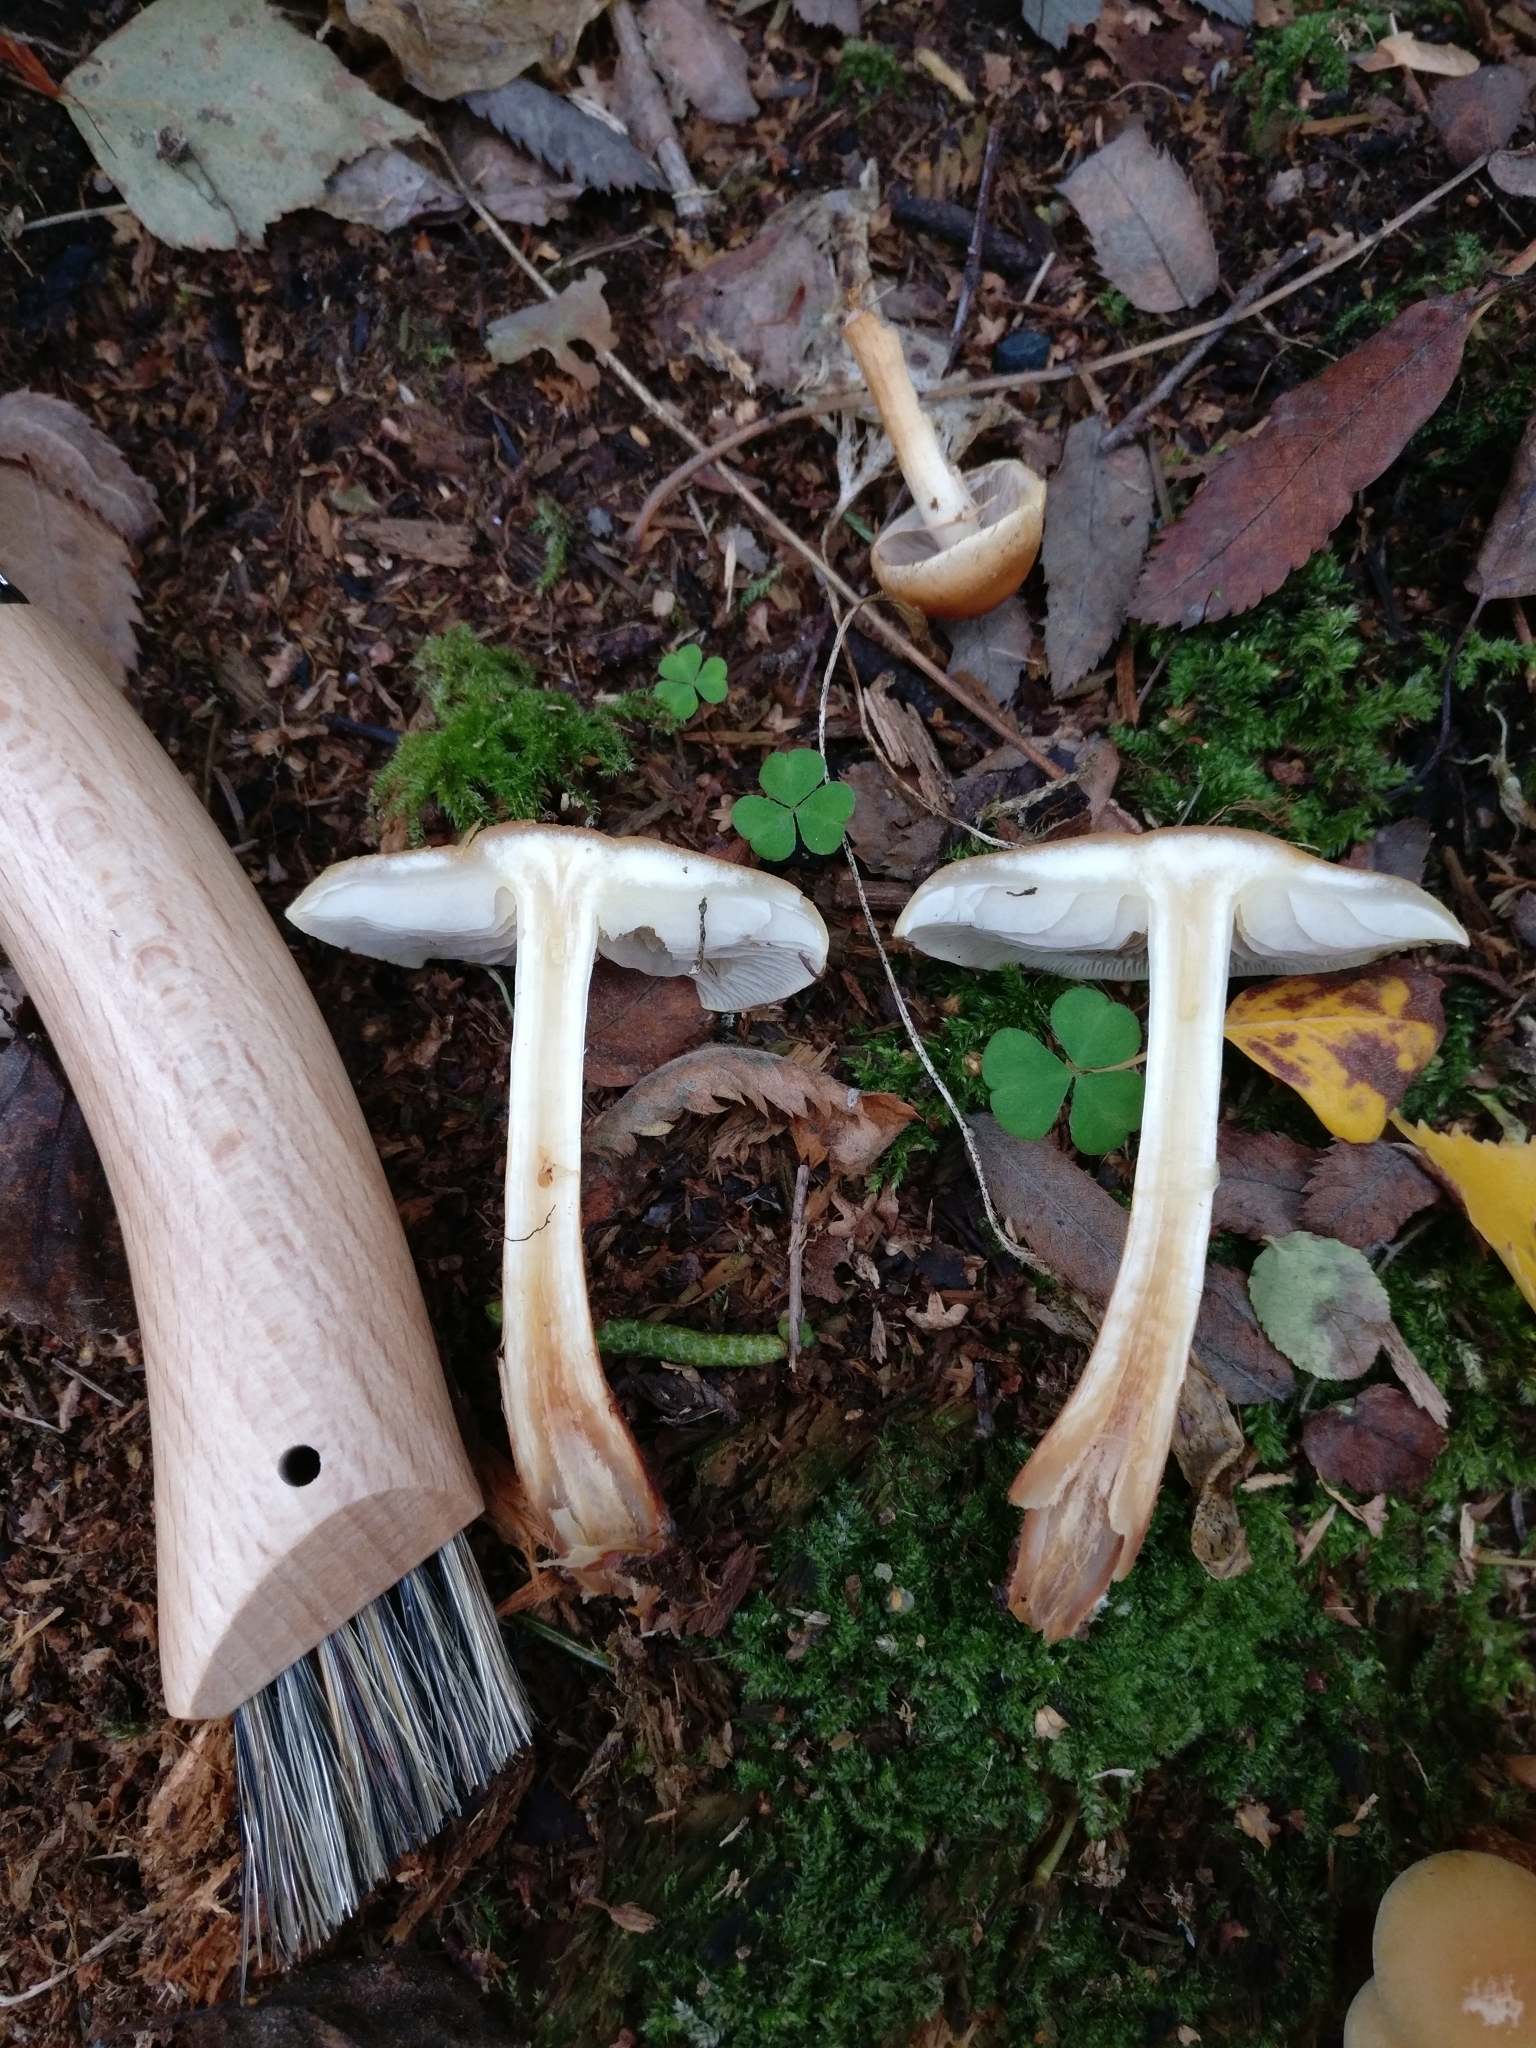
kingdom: Fungi
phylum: Basidiomycota
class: Agaricomycetes
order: Agaricales
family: Strophariaceae
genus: Hypholoma
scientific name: Hypholoma capnoides
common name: Conifer tuft
